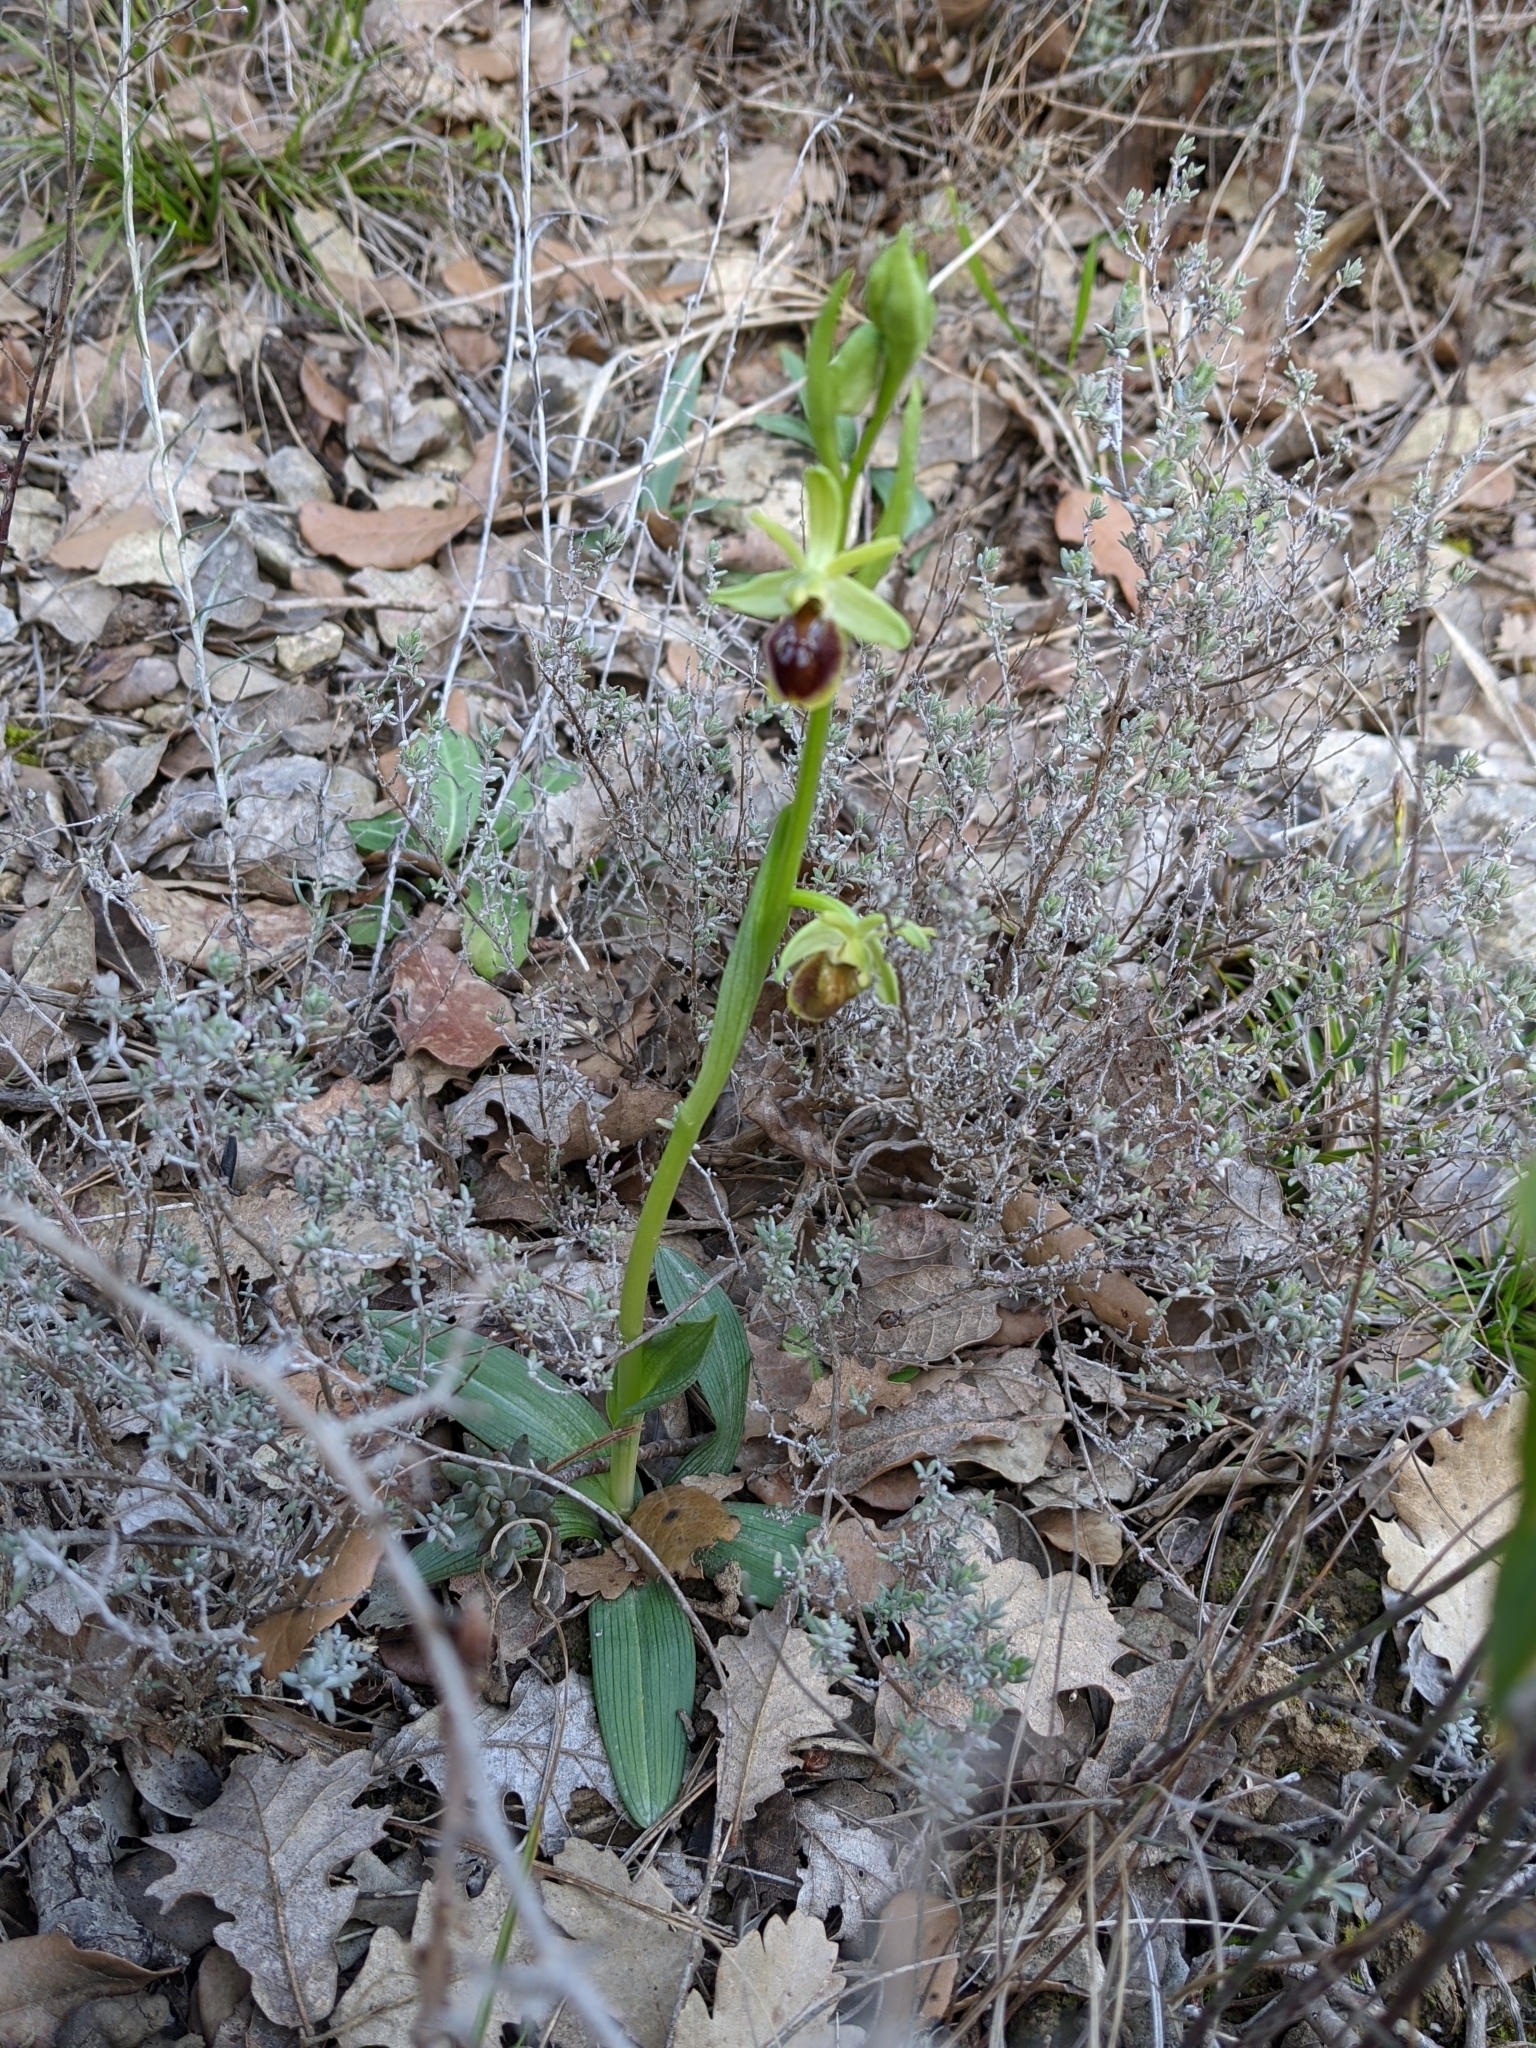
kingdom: Plantae
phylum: Tracheophyta
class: Liliopsida
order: Asparagales
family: Orchidaceae
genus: Ophrys
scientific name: Ophrys sphegodes
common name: Early spider-orchid
